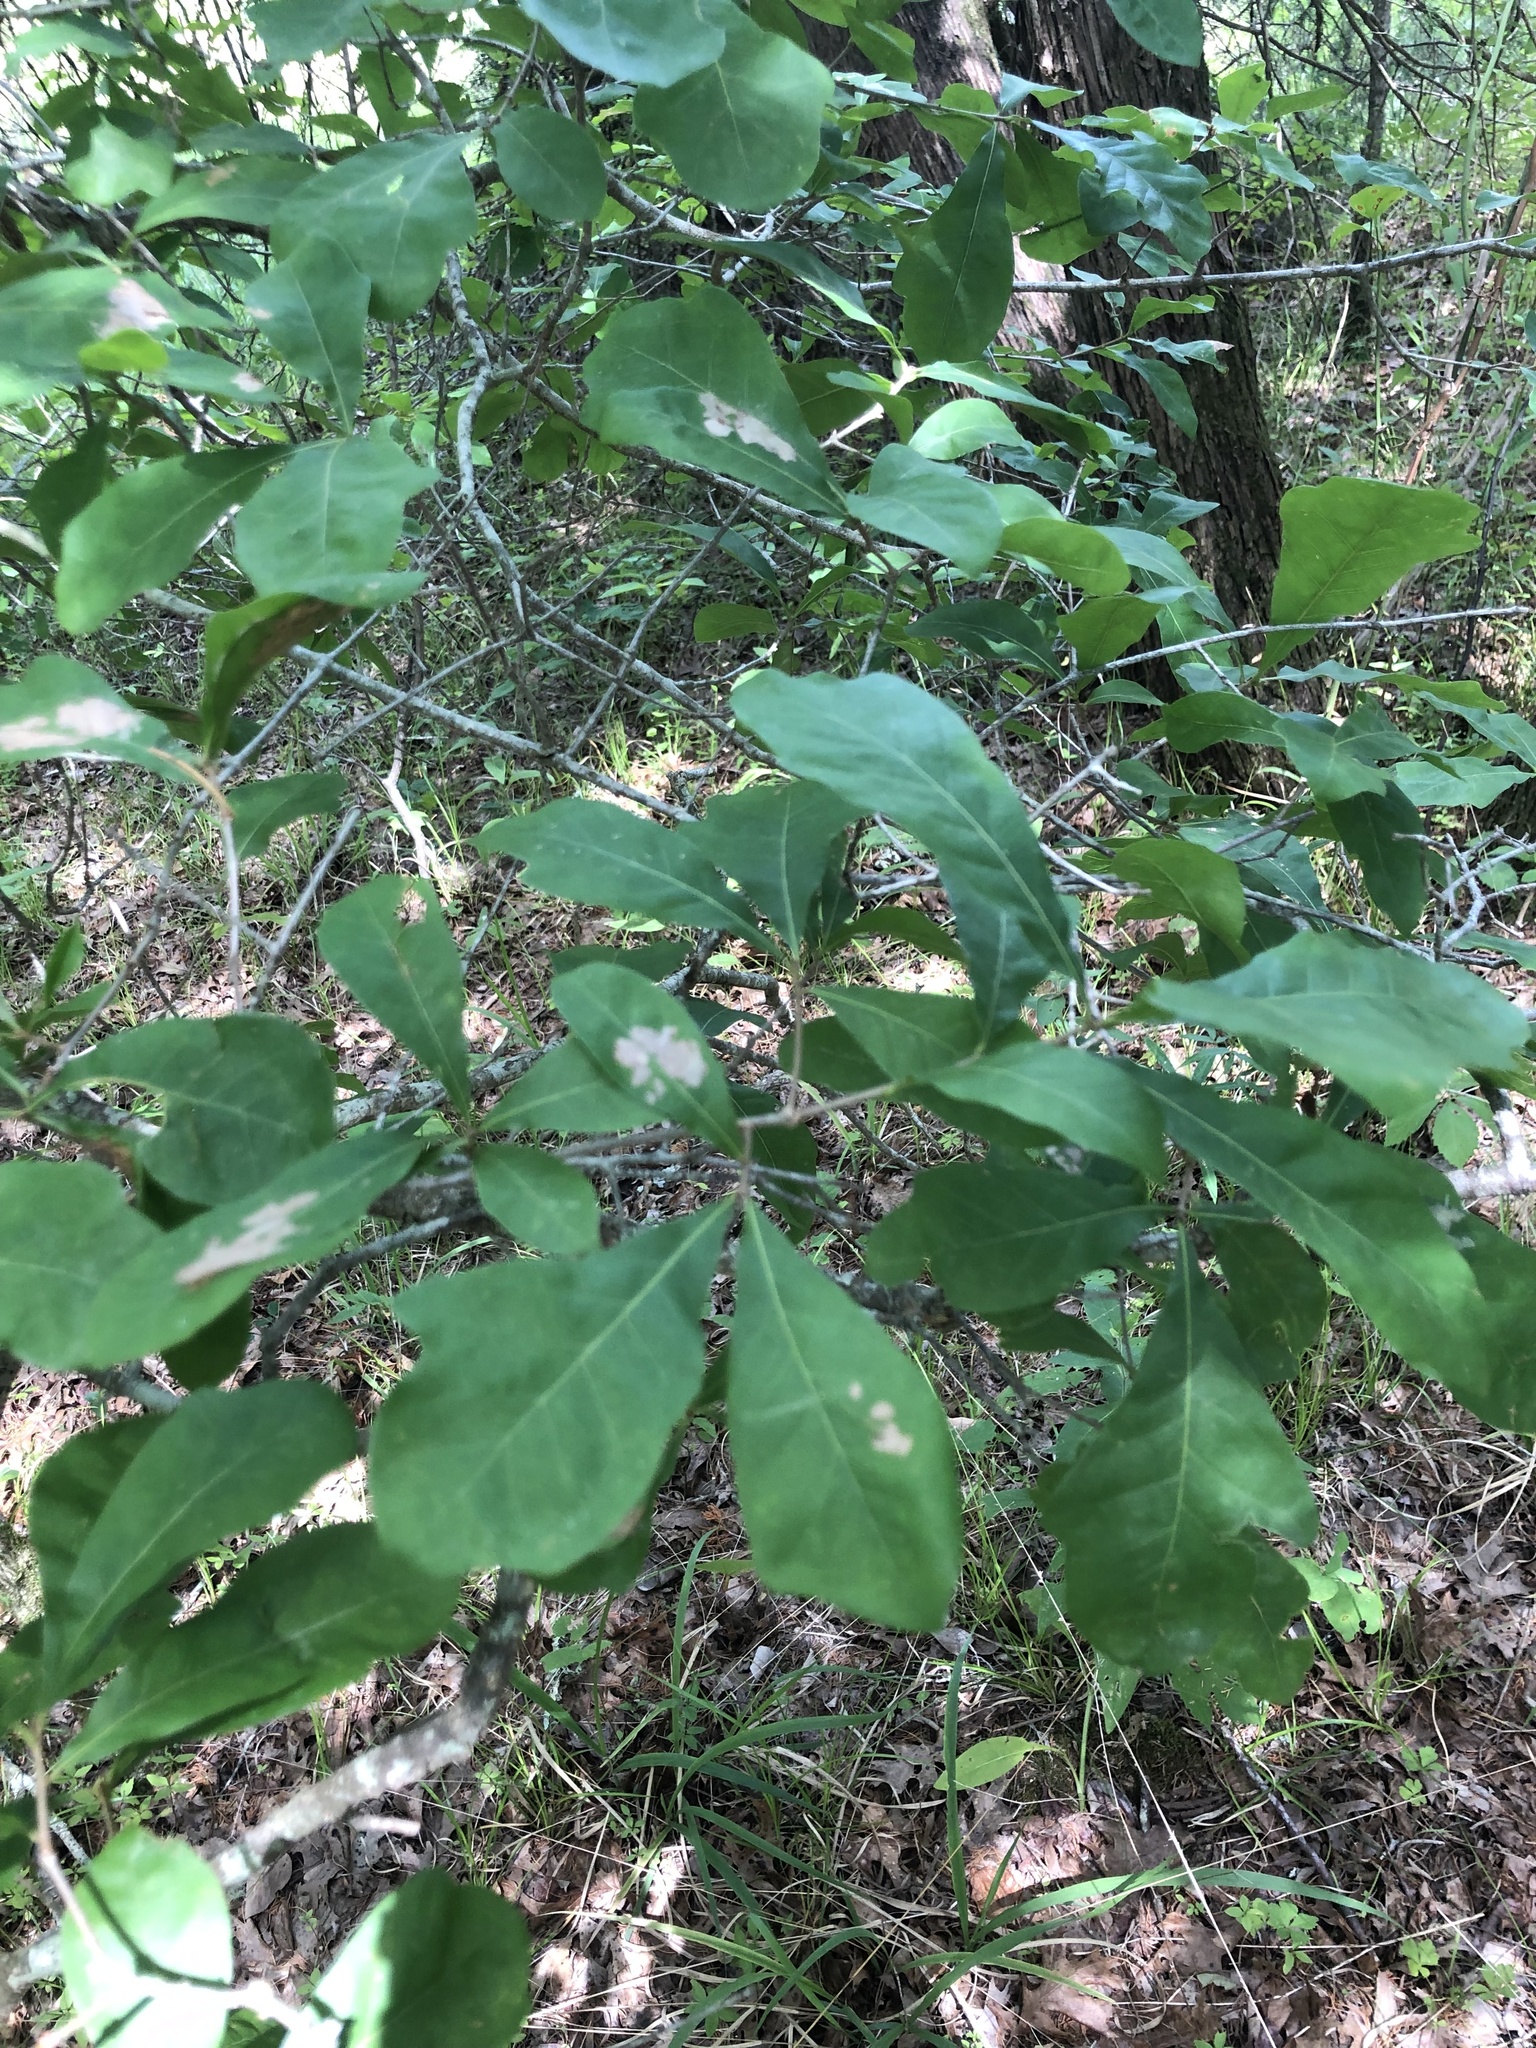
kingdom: Plantae
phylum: Tracheophyta
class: Magnoliopsida
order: Fagales
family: Fagaceae
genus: Quercus
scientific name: Quercus sinuata
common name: Durand oak
